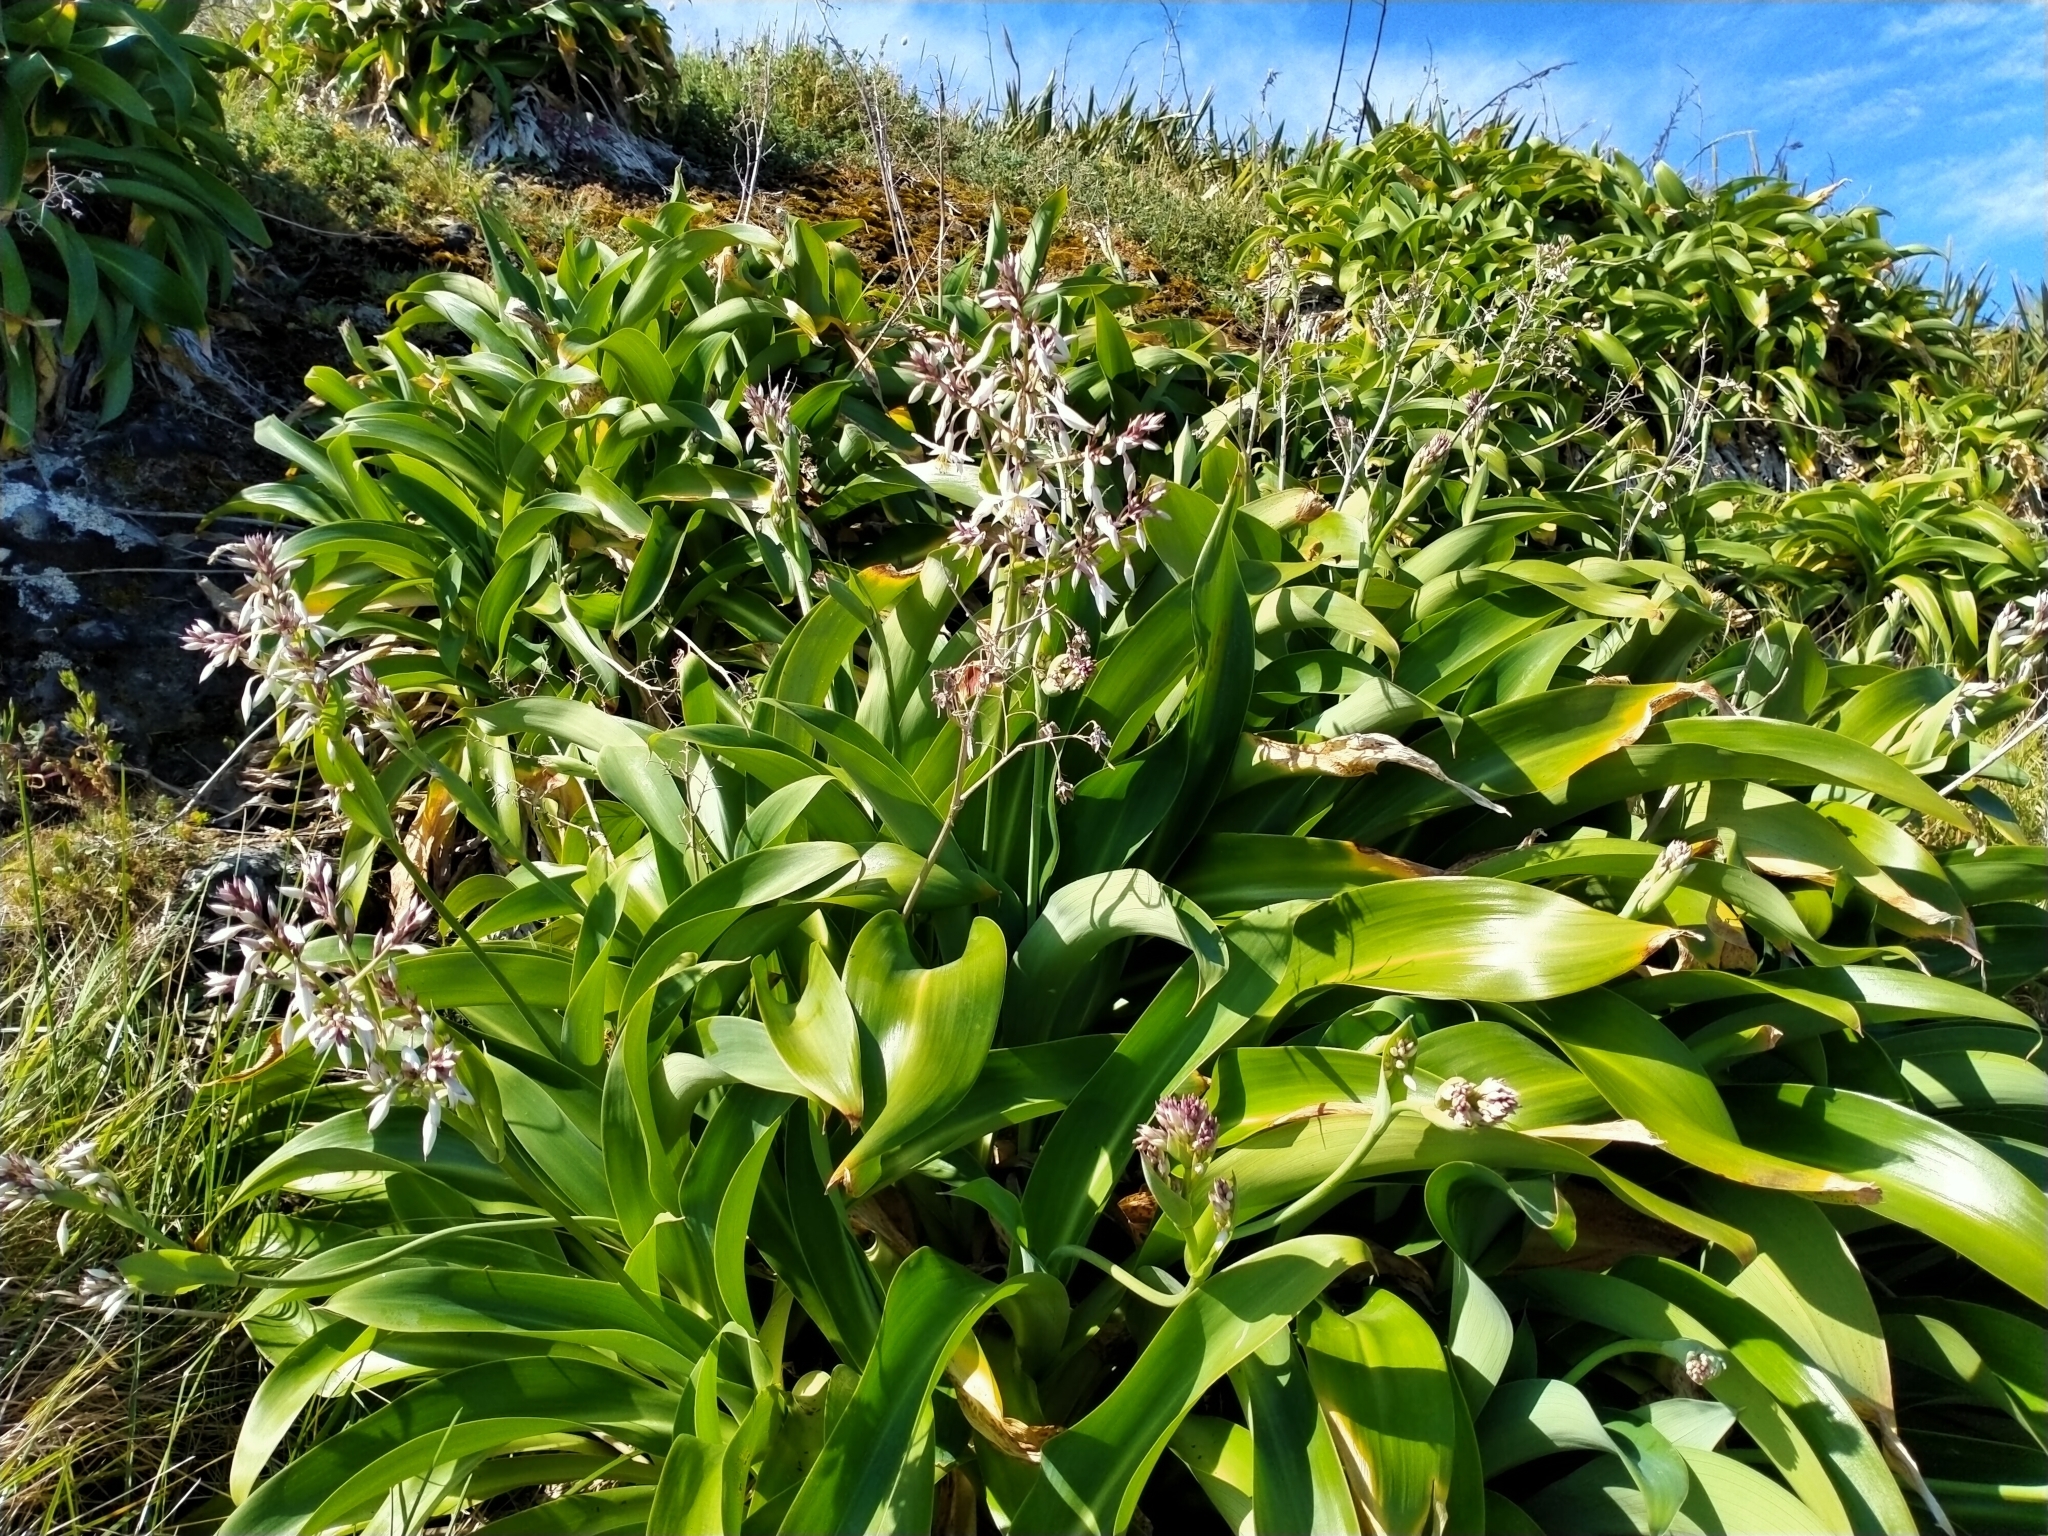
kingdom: Plantae
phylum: Tracheophyta
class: Liliopsida
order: Asparagales
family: Asparagaceae
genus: Arthropodium
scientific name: Arthropodium cirratum
